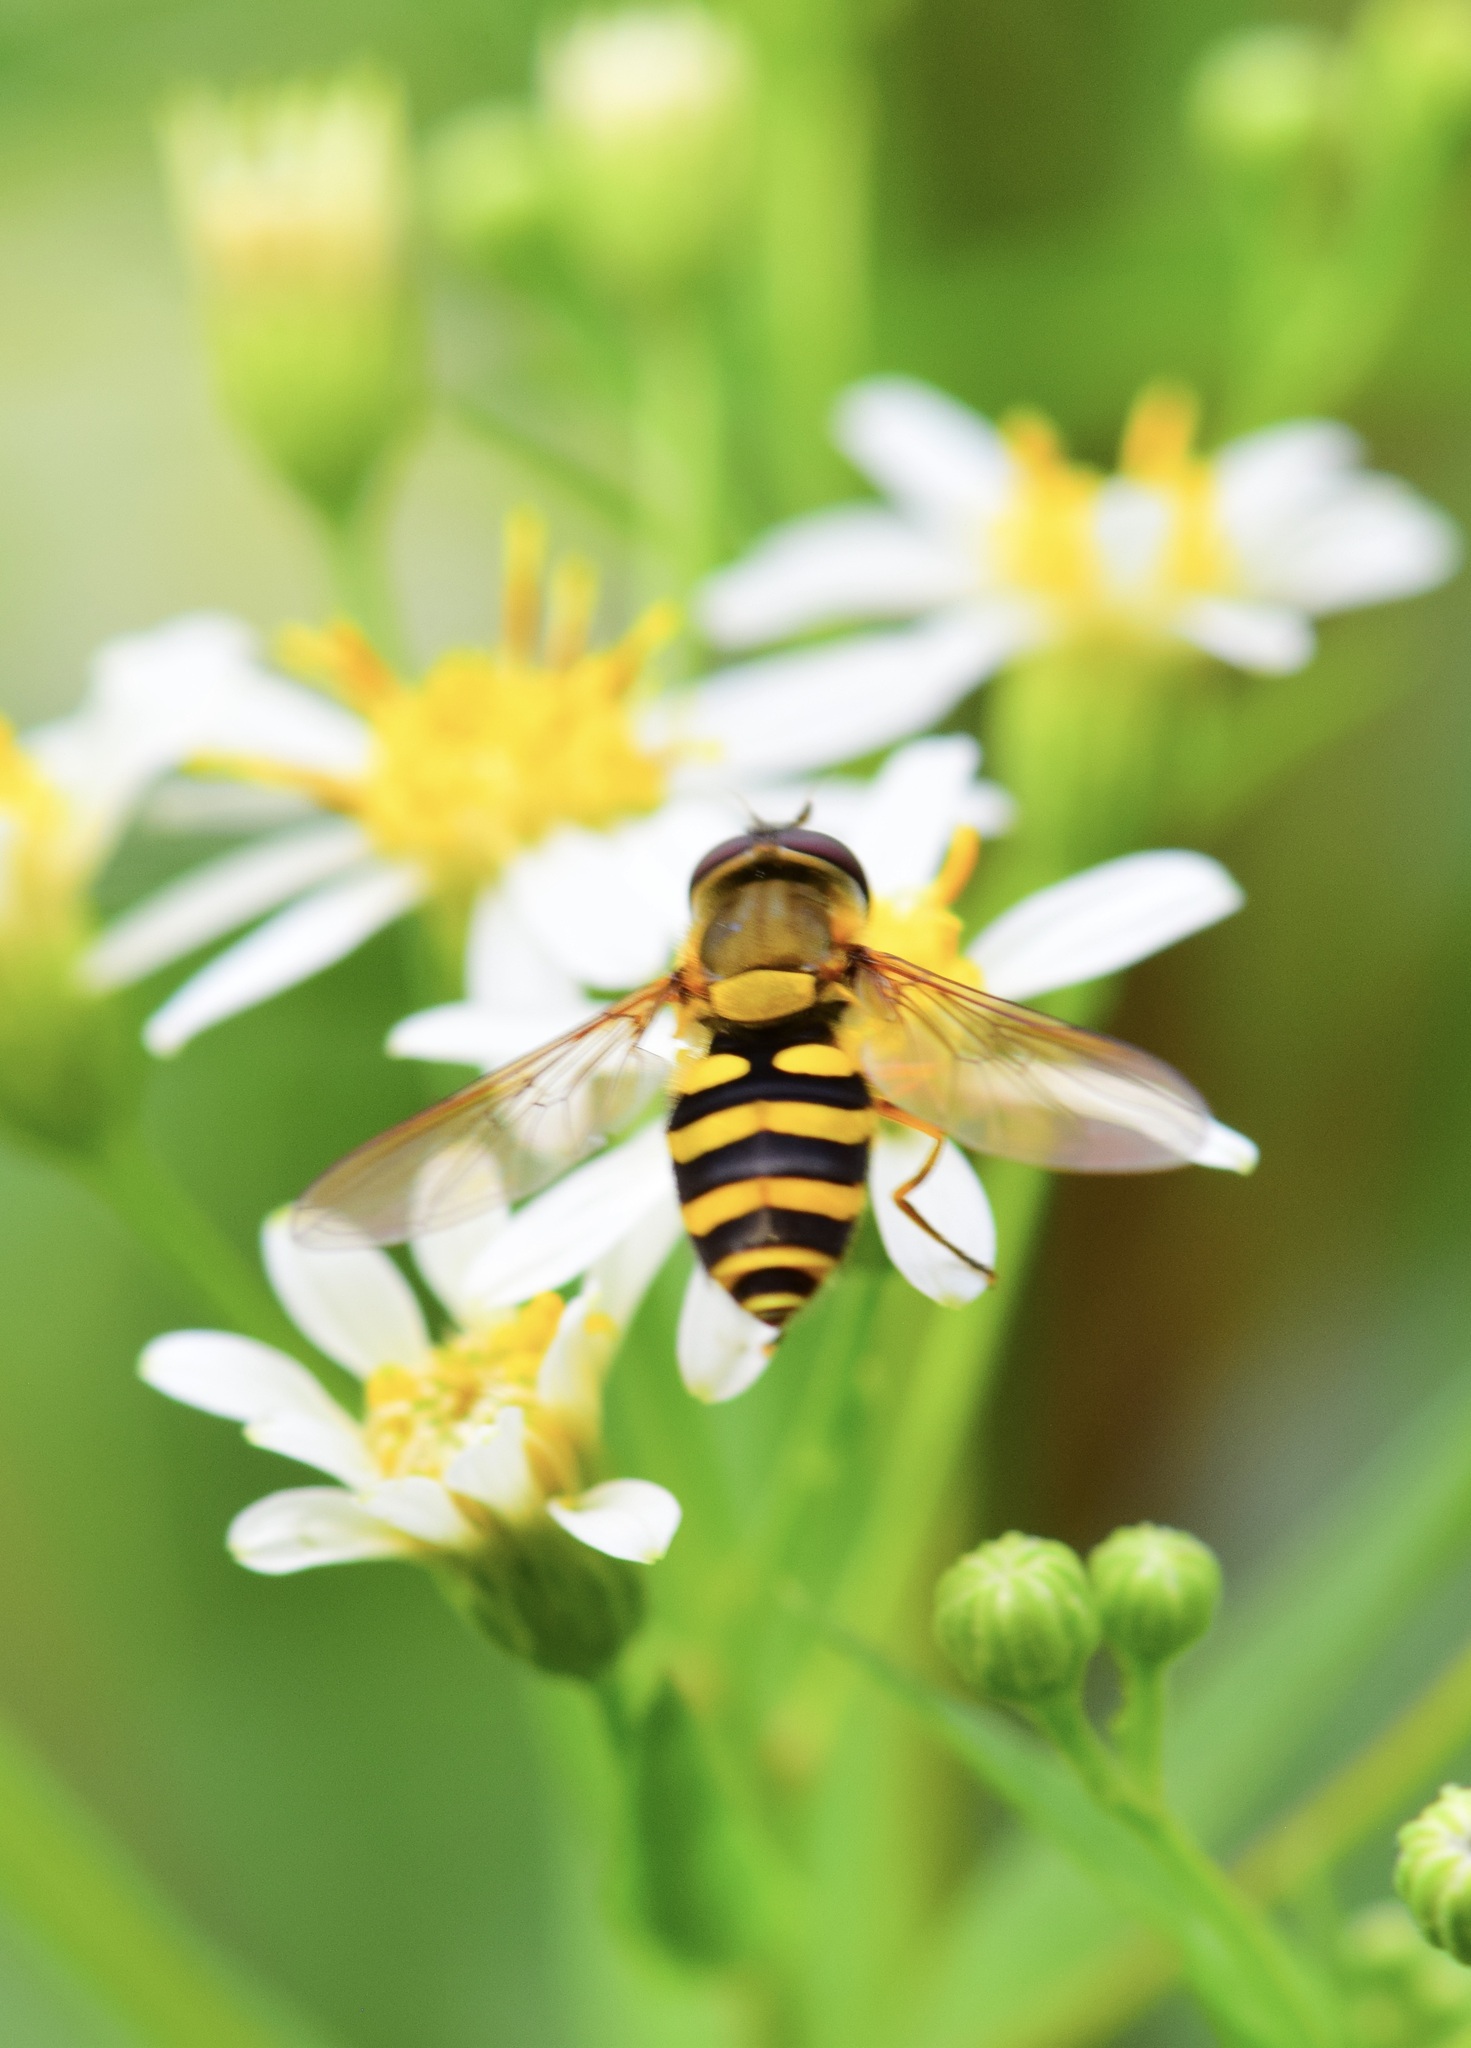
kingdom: Animalia
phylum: Arthropoda
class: Insecta
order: Diptera
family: Syrphidae
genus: Syrphus
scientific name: Syrphus ribesii
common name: Common flower fly
